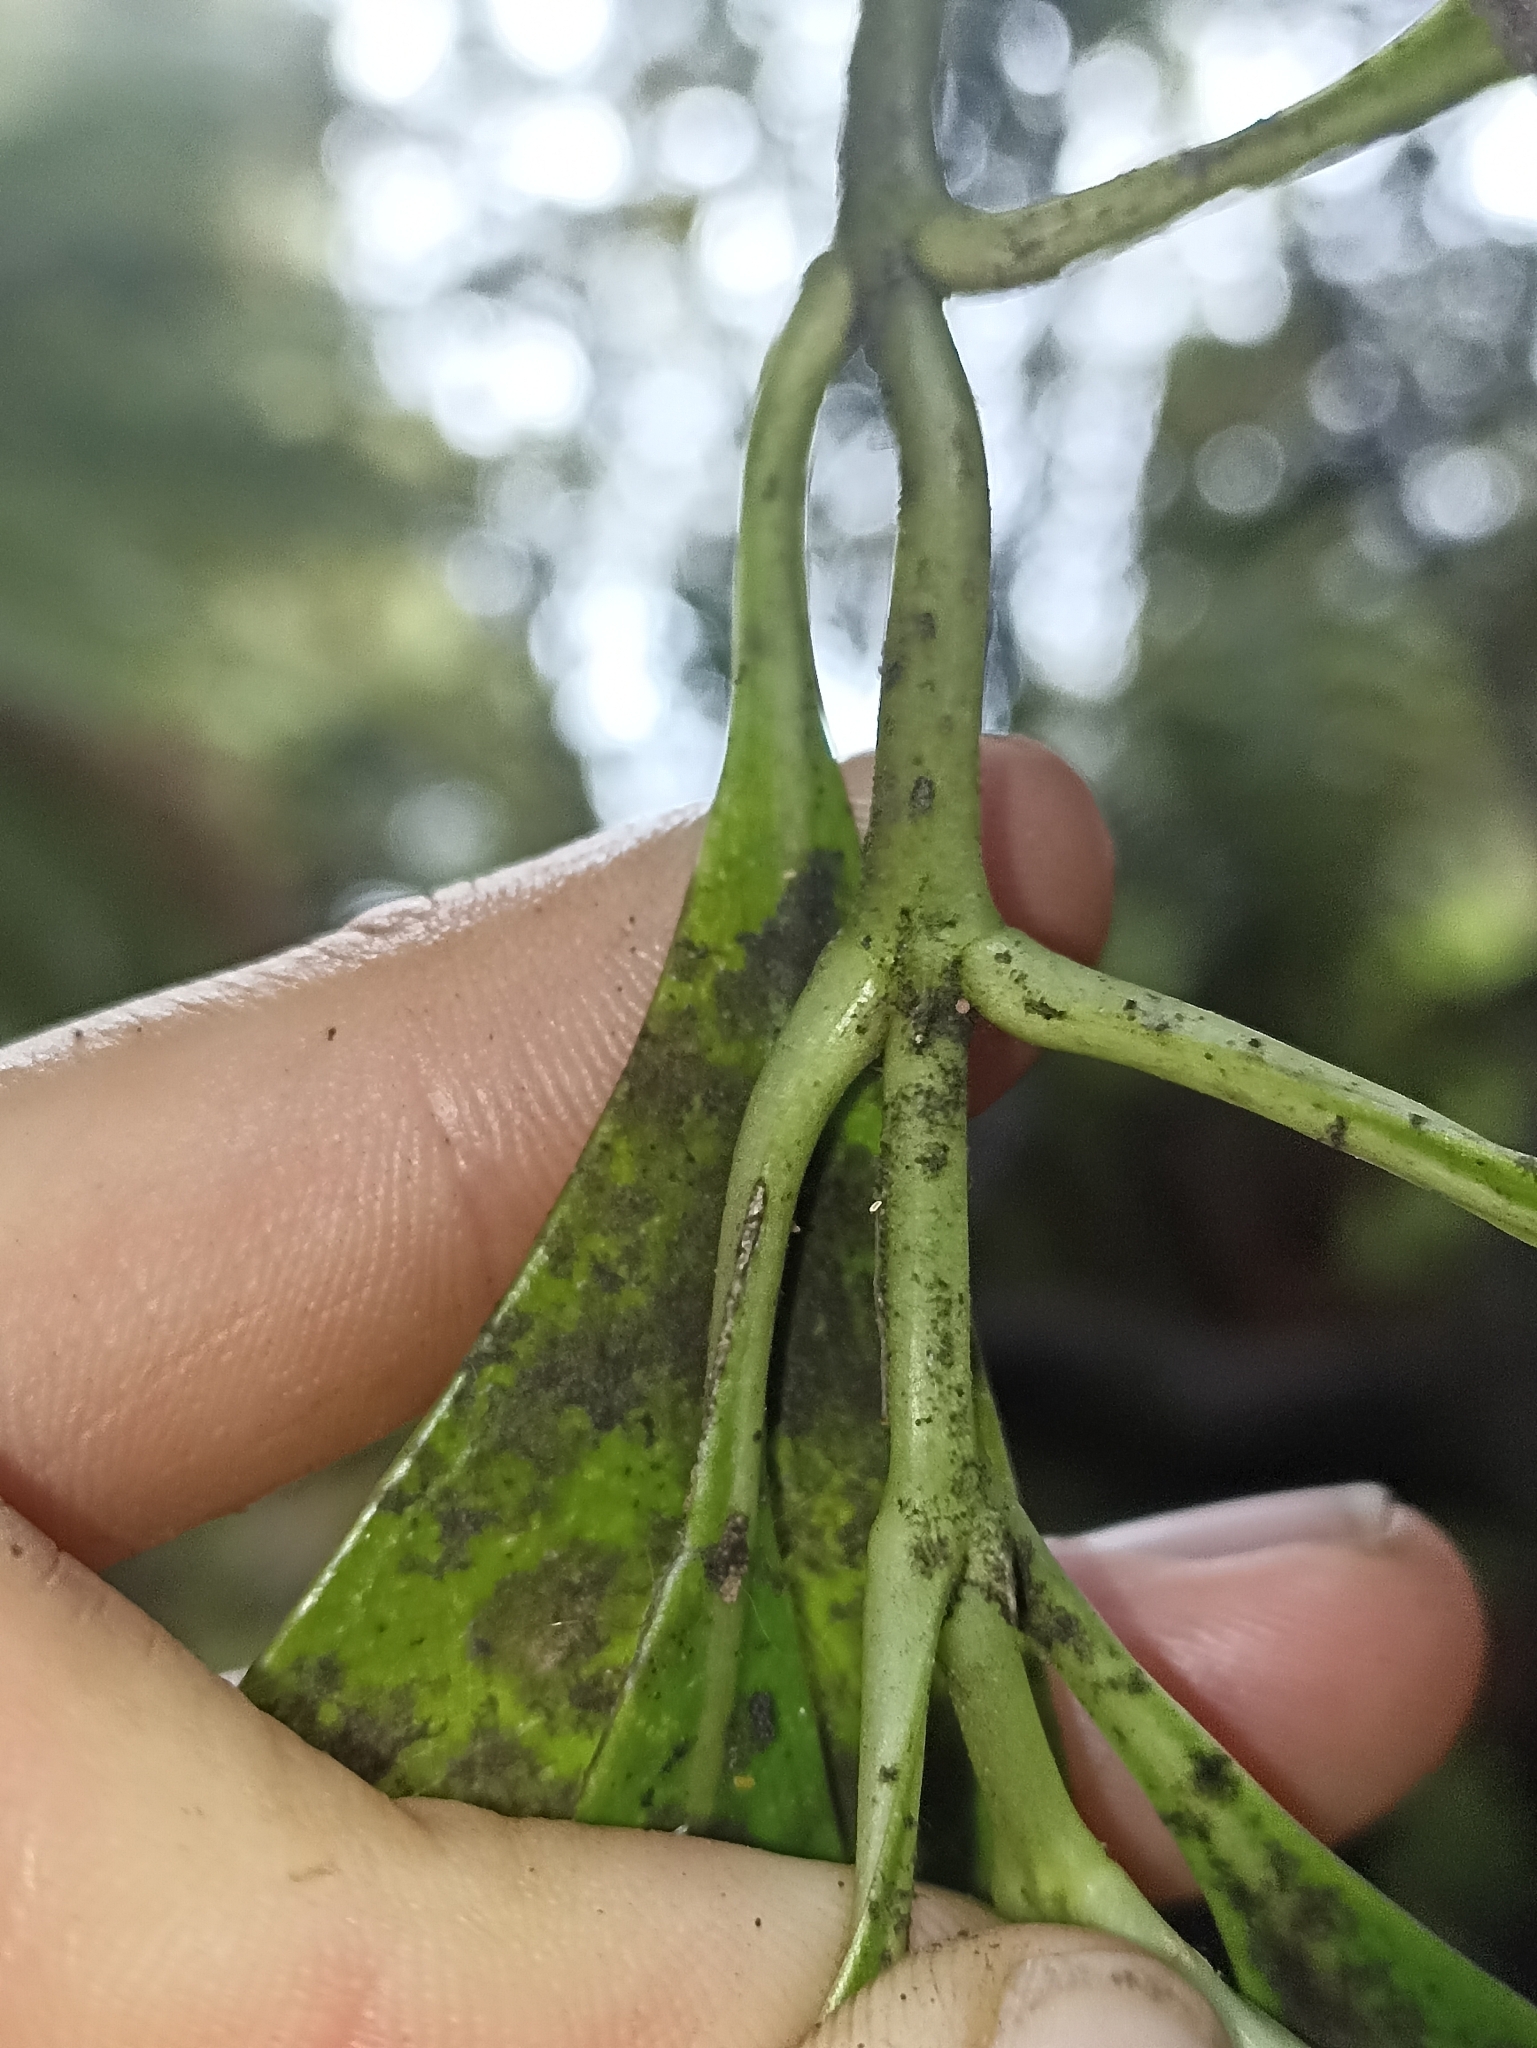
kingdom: Plantae
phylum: Tracheophyta
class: Magnoliopsida
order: Gentianales
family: Rubiaceae
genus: Coprosma
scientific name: Coprosma lucida
